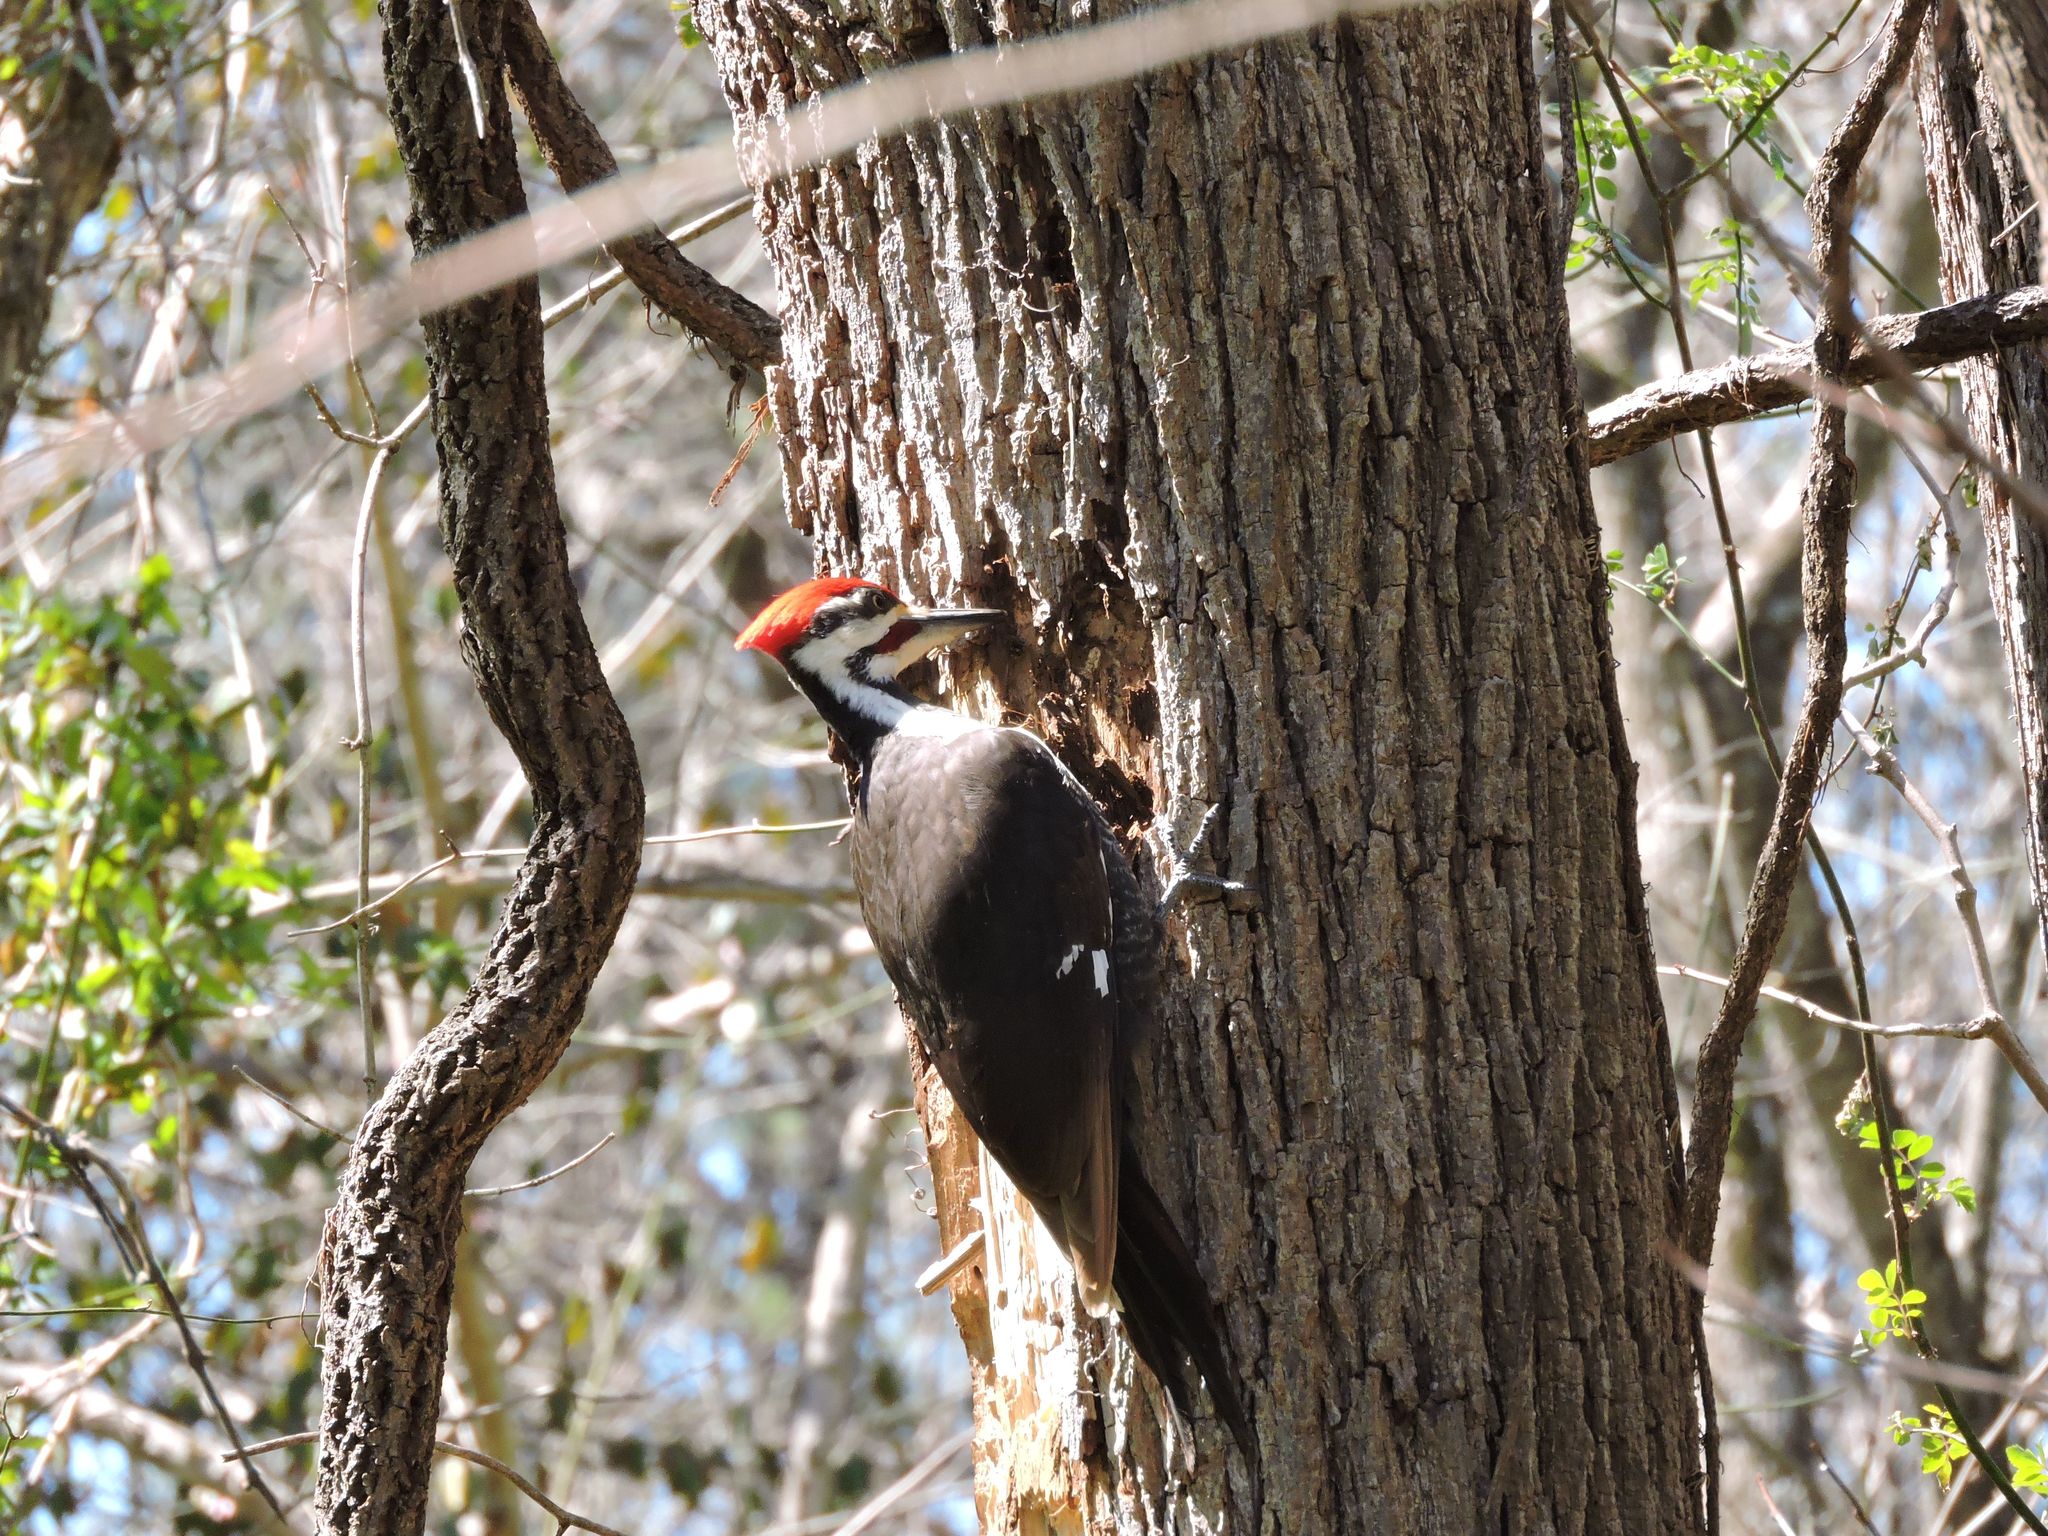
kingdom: Animalia
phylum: Chordata
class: Aves
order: Piciformes
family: Picidae
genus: Dryocopus
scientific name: Dryocopus pileatus
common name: Pileated woodpecker
